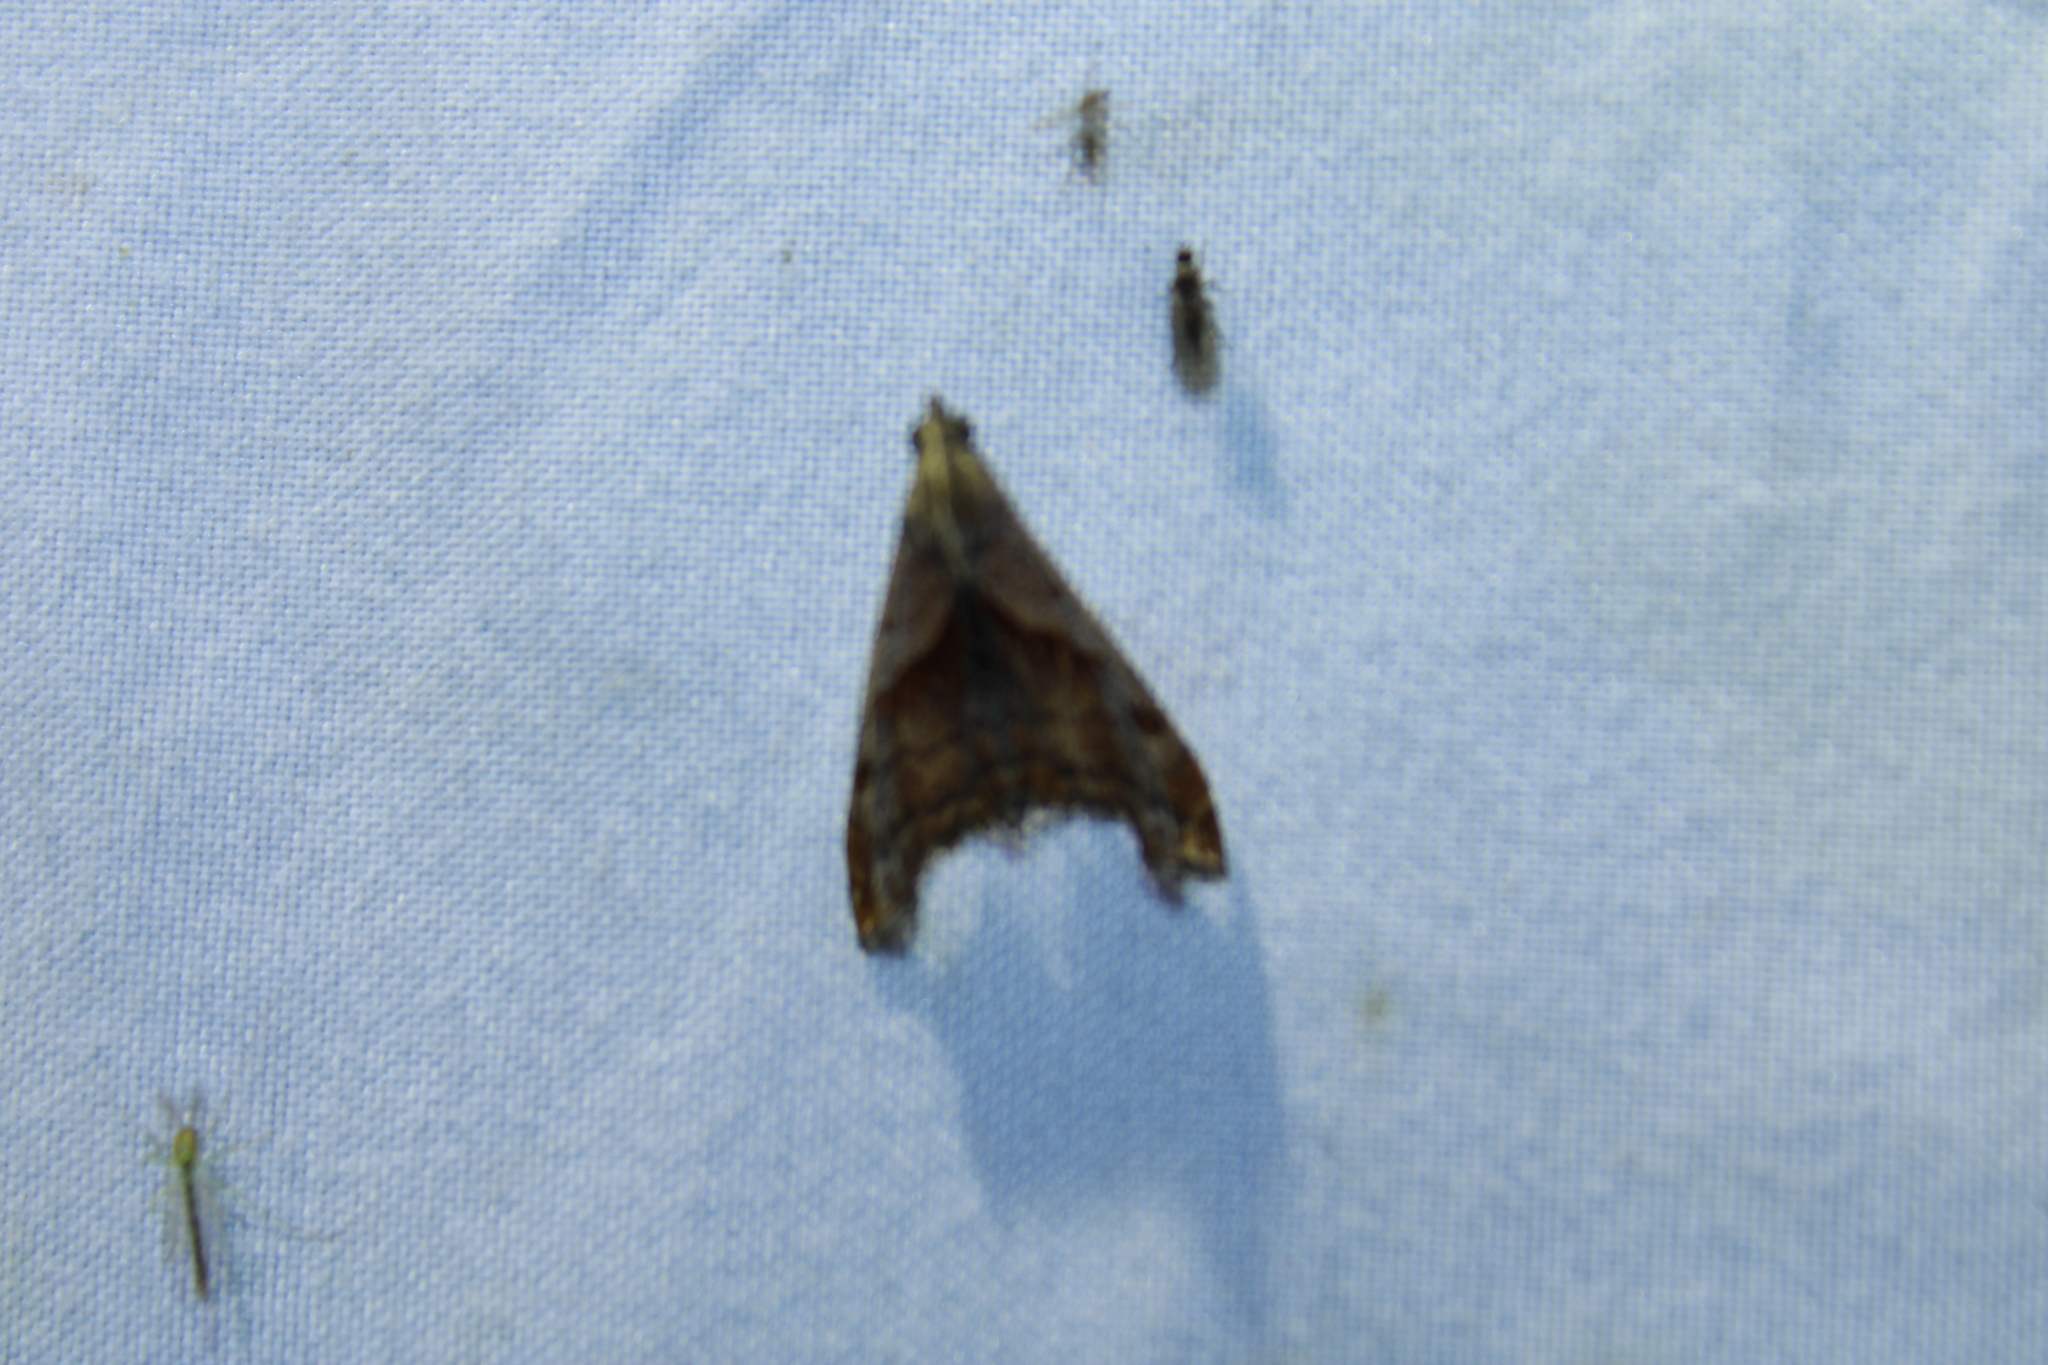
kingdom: Animalia
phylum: Arthropoda
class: Insecta
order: Lepidoptera
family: Erebidae
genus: Palthis
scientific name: Palthis angulalis
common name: Dark-spotted palthis moth
